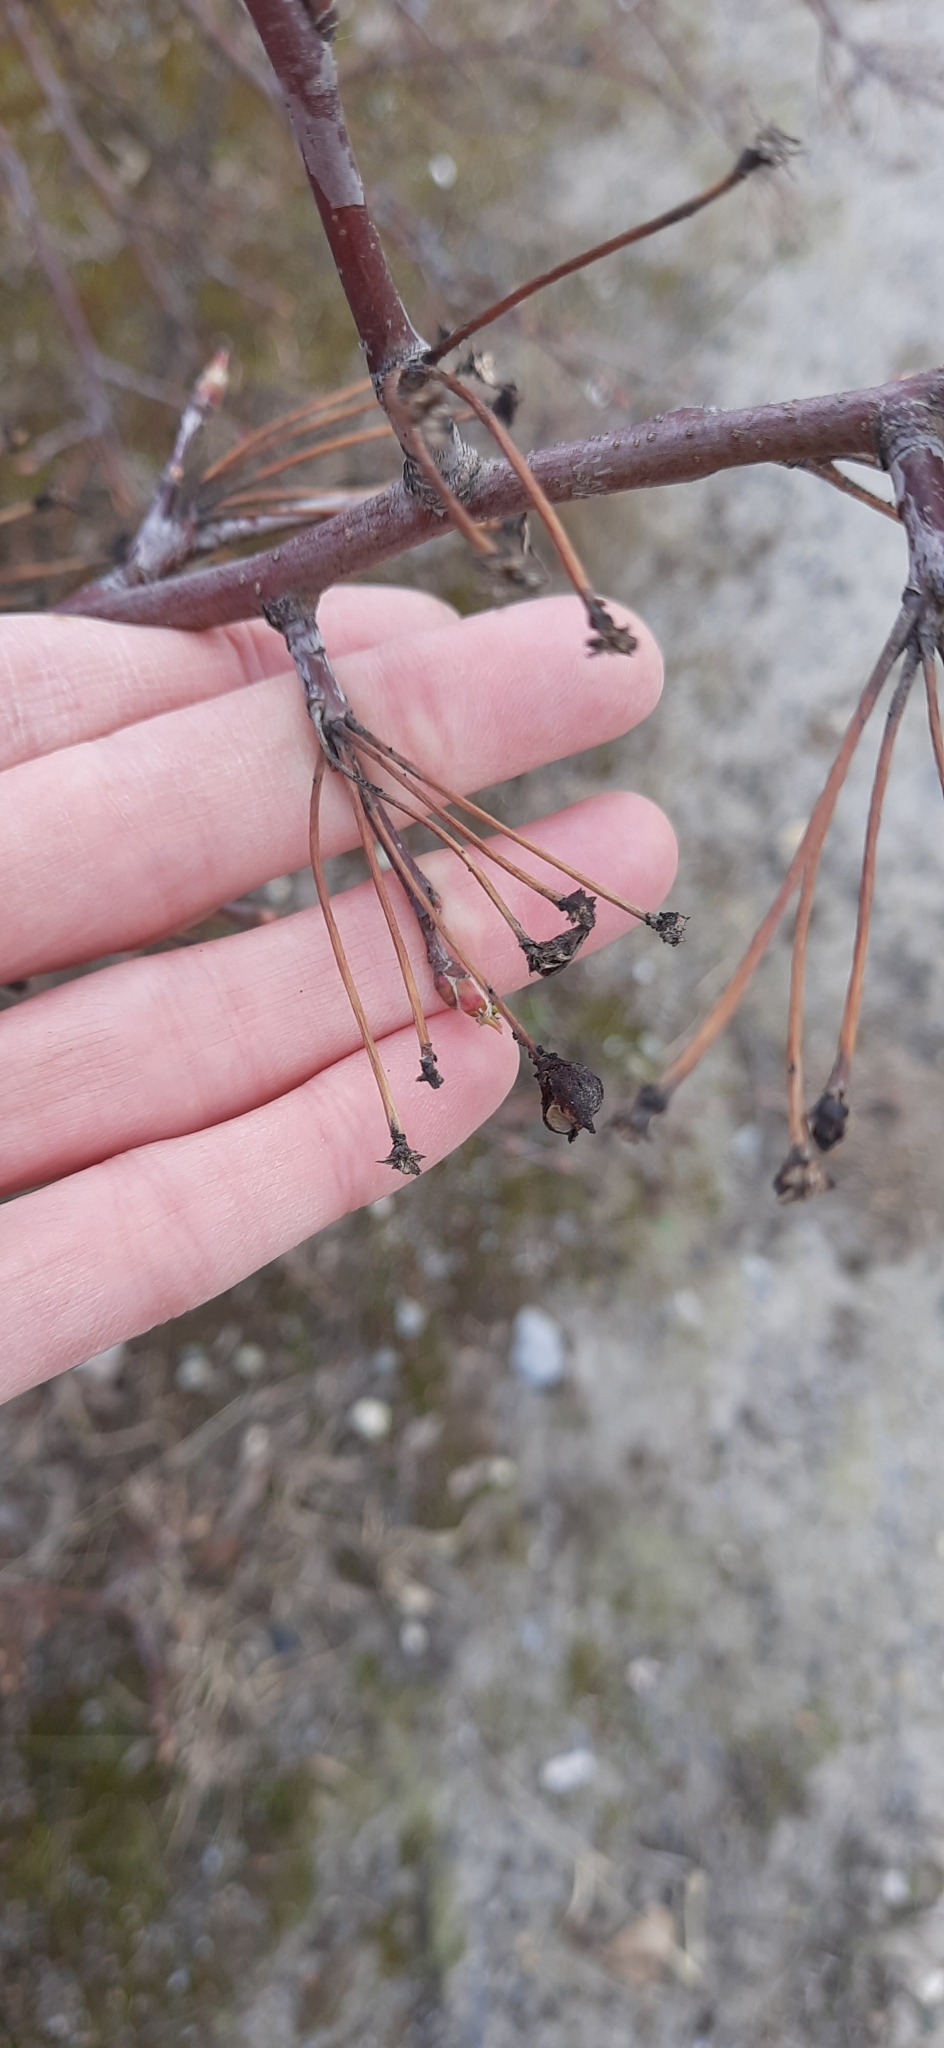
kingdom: Plantae
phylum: Tracheophyta
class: Magnoliopsida
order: Rosales
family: Rosaceae
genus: Malus
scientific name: Malus baccata
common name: Siberian crab
